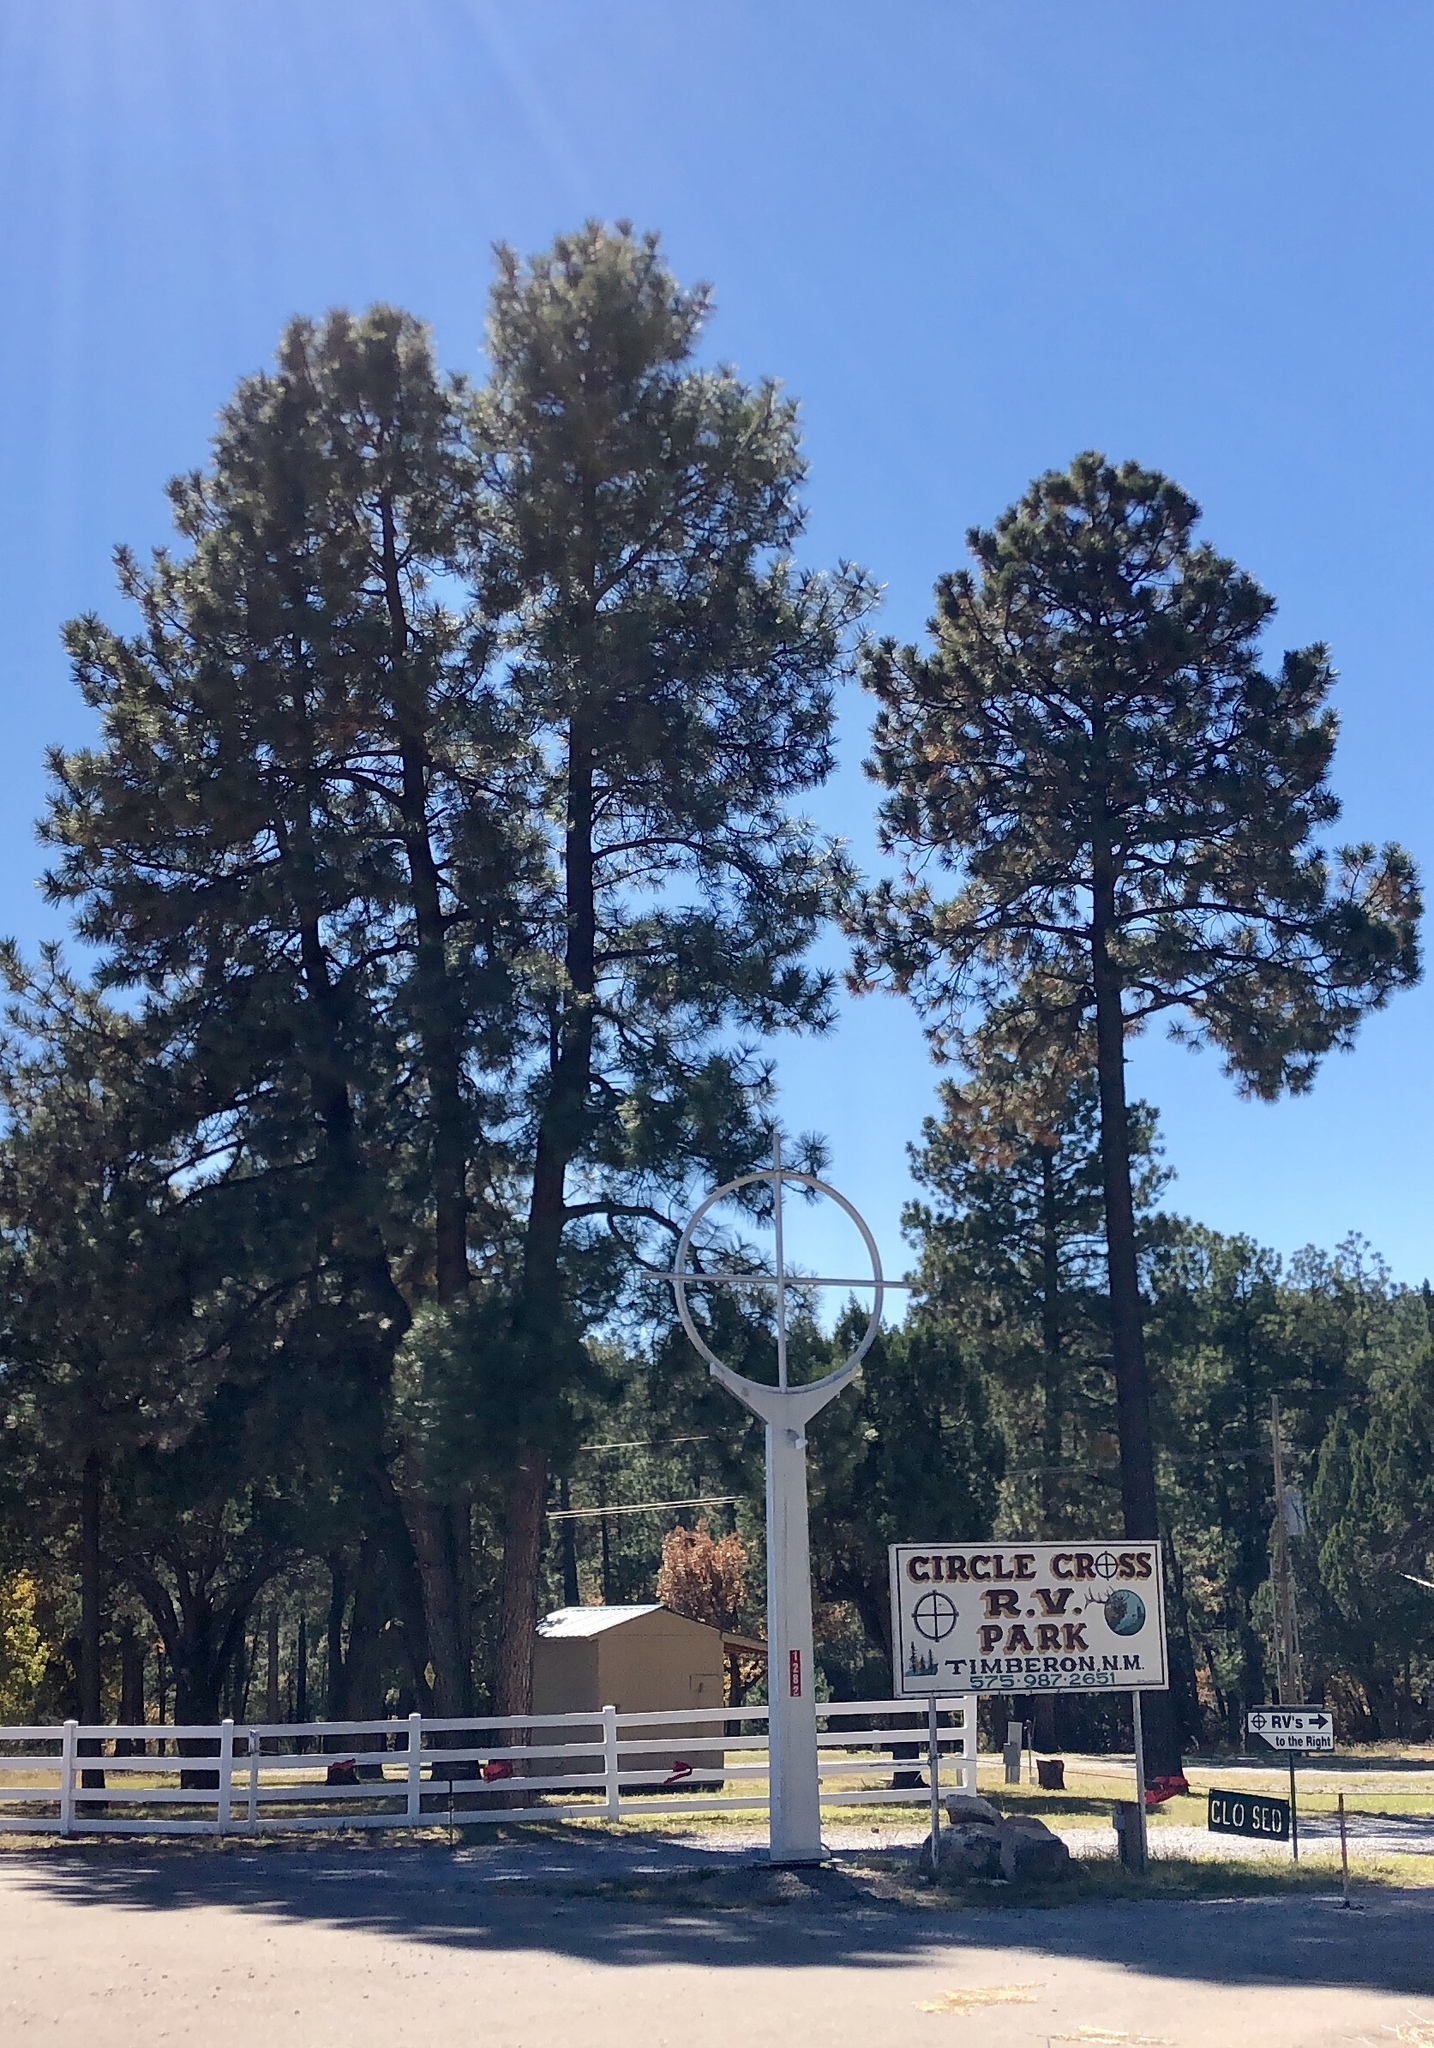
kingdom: Plantae
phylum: Tracheophyta
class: Pinopsida
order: Pinales
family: Pinaceae
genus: Pinus
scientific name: Pinus ponderosa
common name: Western yellow-pine
